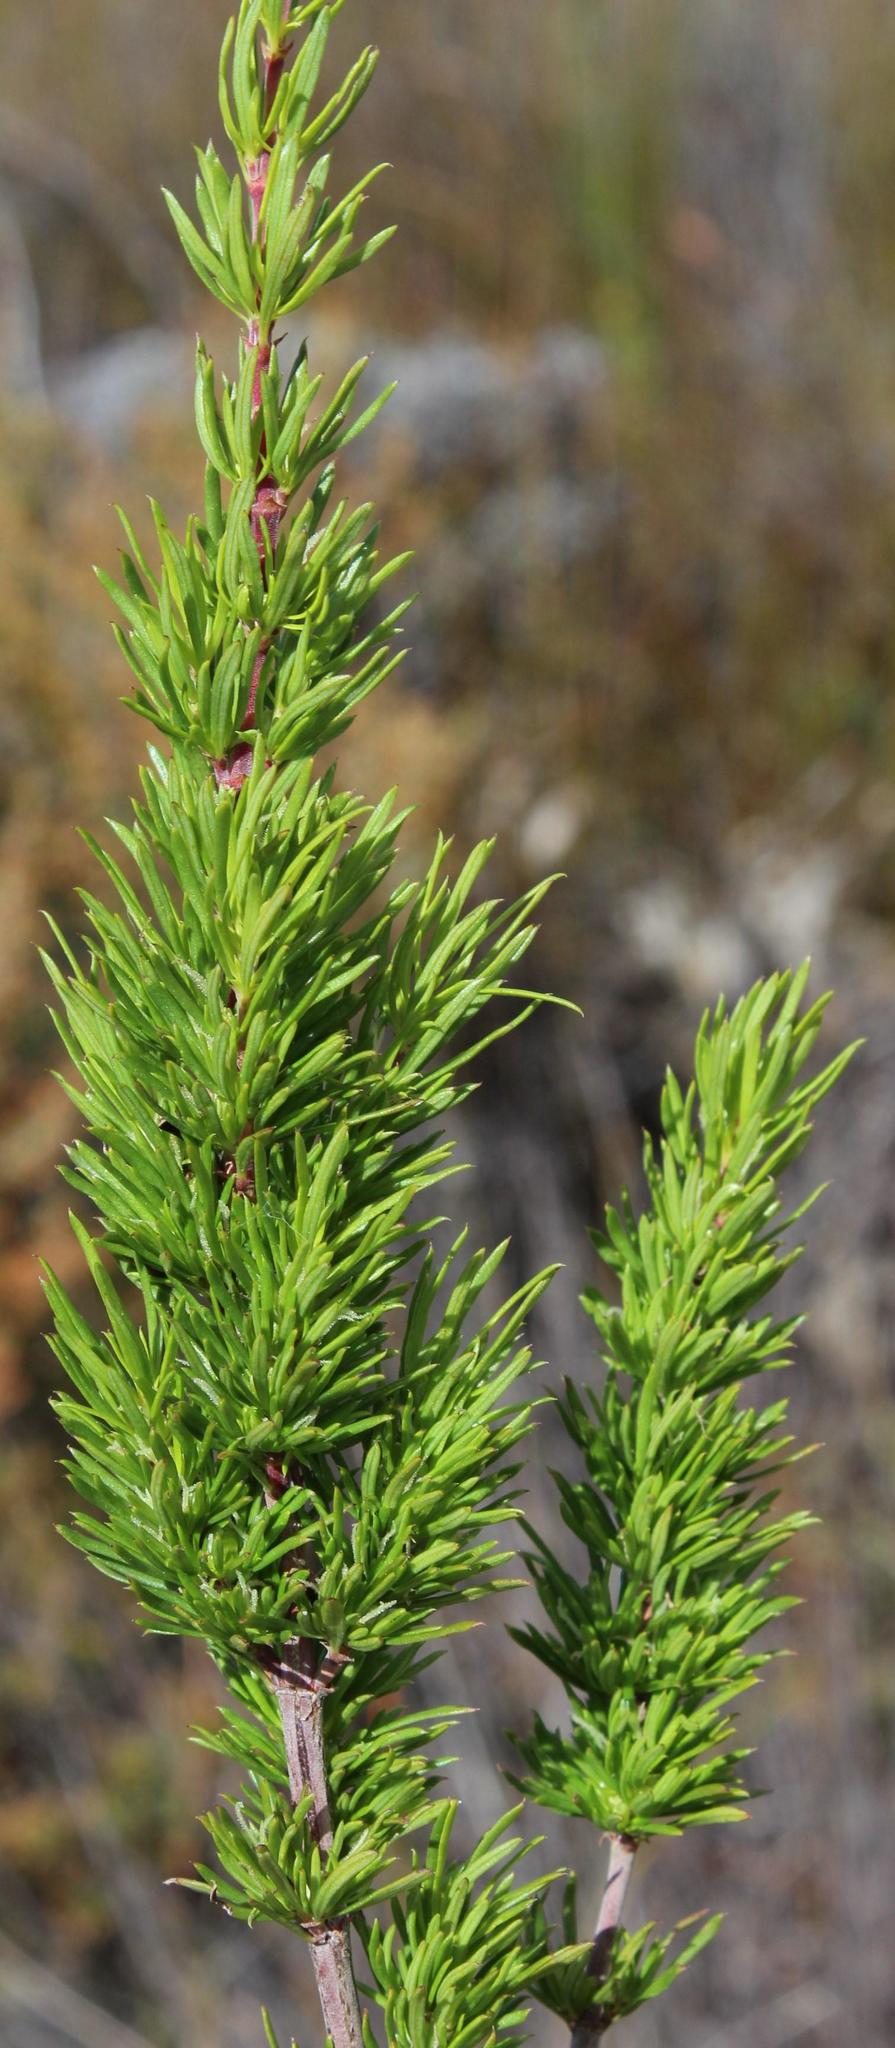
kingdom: Plantae
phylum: Tracheophyta
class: Magnoliopsida
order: Gentianales
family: Rubiaceae
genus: Anthospermum
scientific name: Anthospermum aethiopicum
